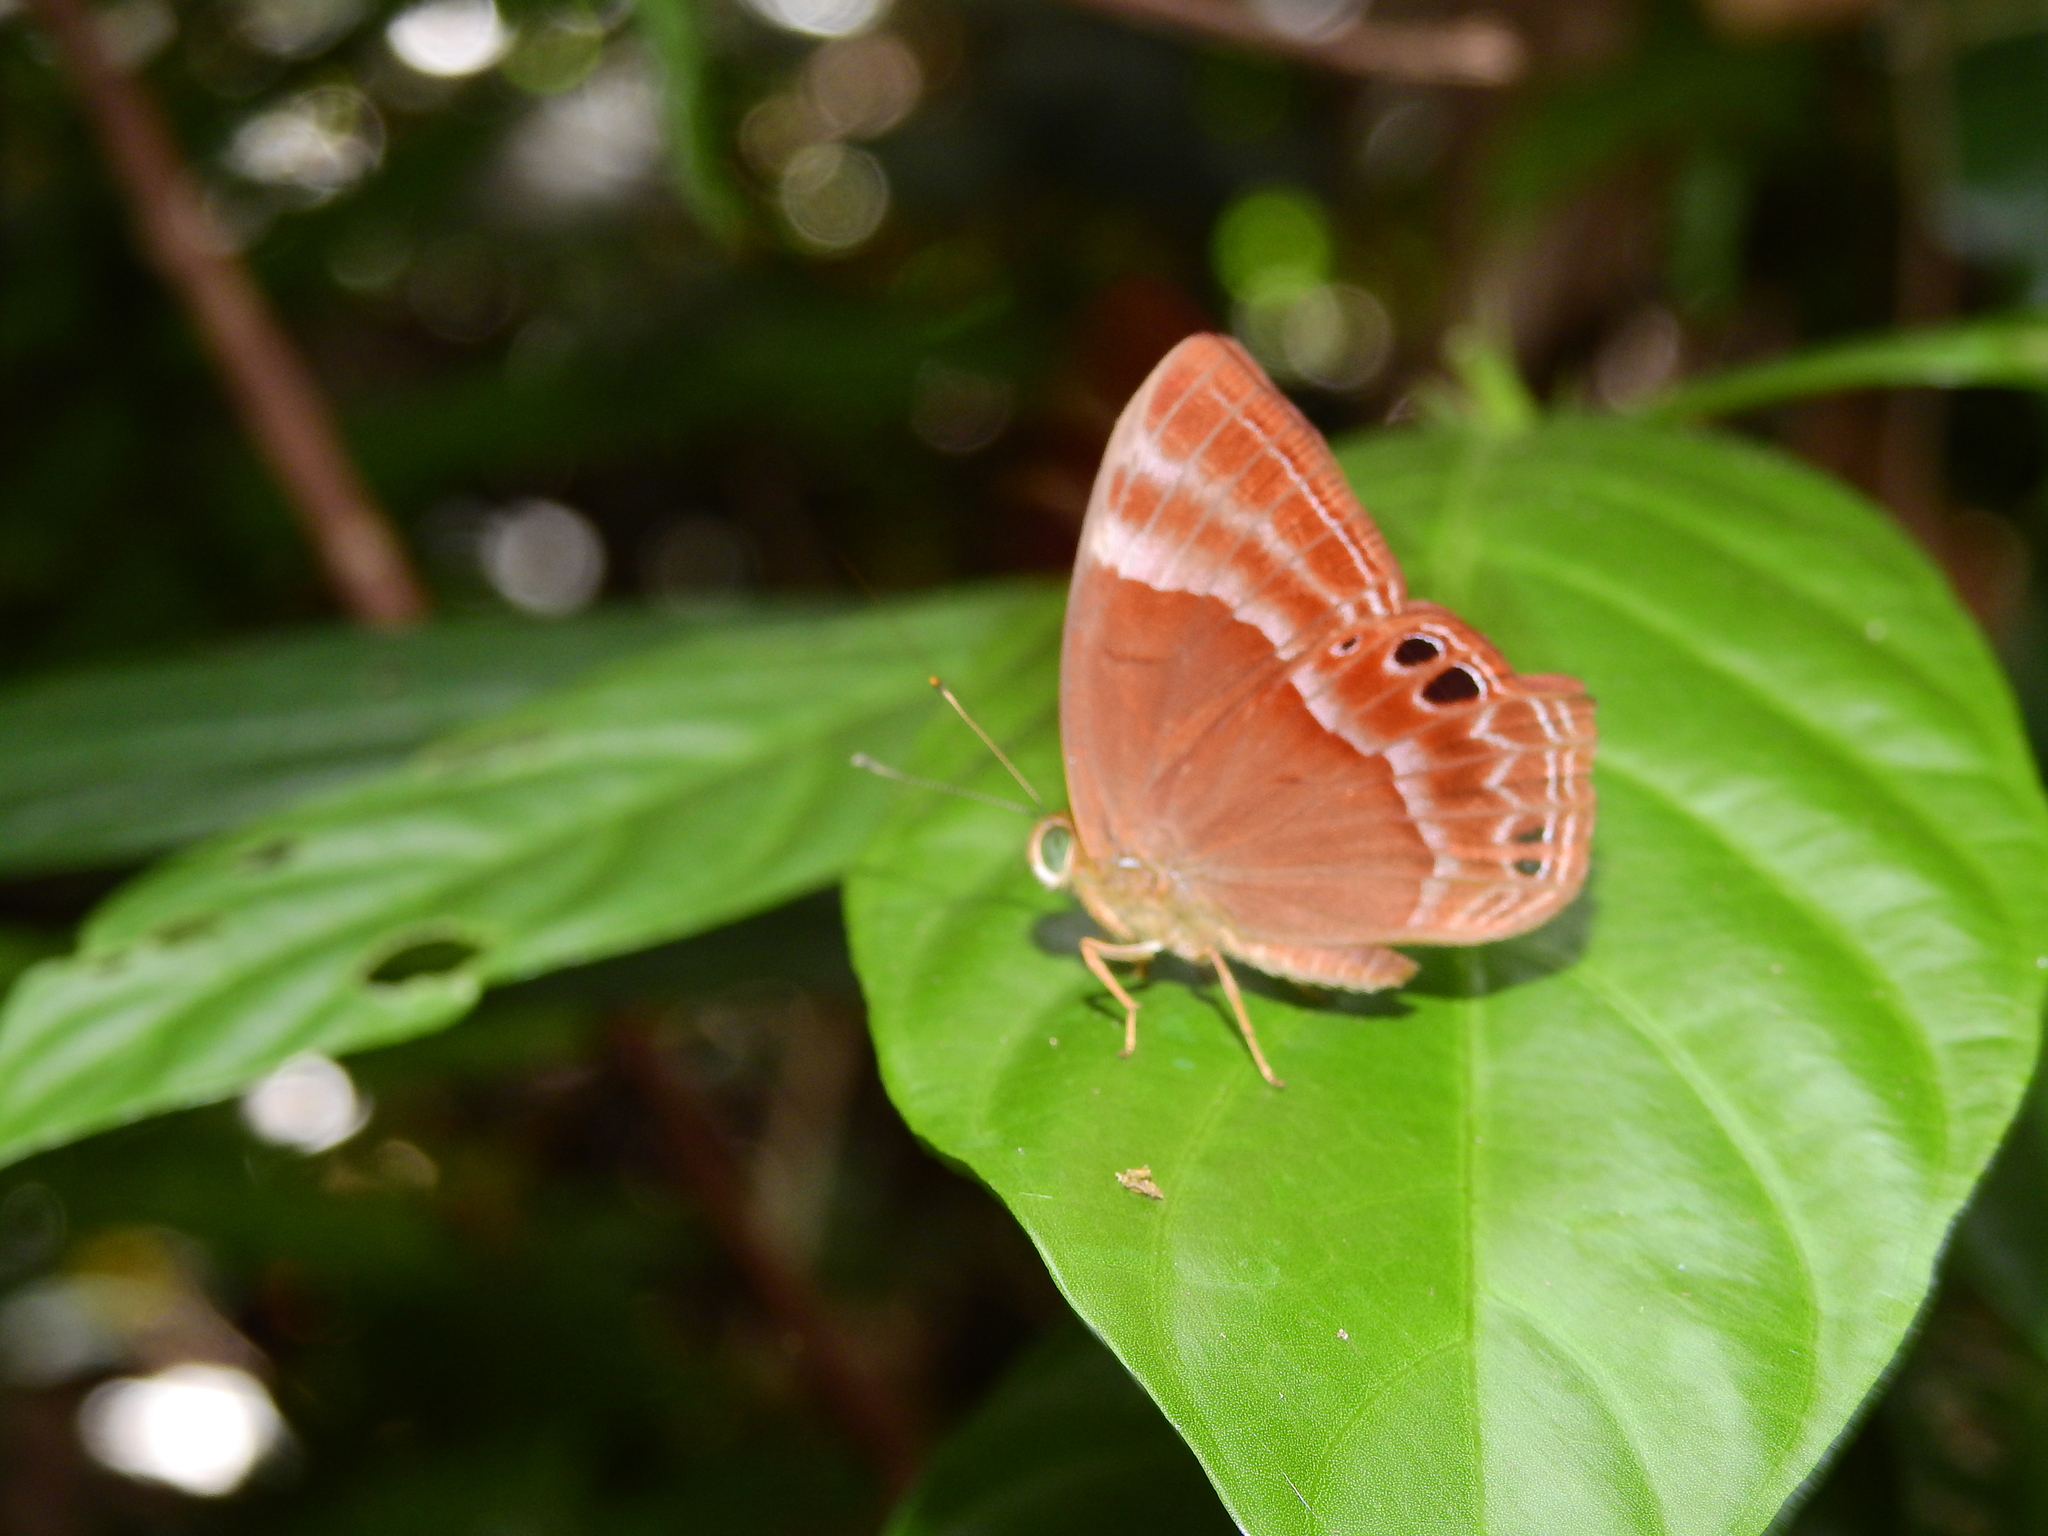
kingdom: Animalia
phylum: Arthropoda
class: Insecta
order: Lepidoptera
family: Lycaenidae
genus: Abisara
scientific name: Abisara echeria
